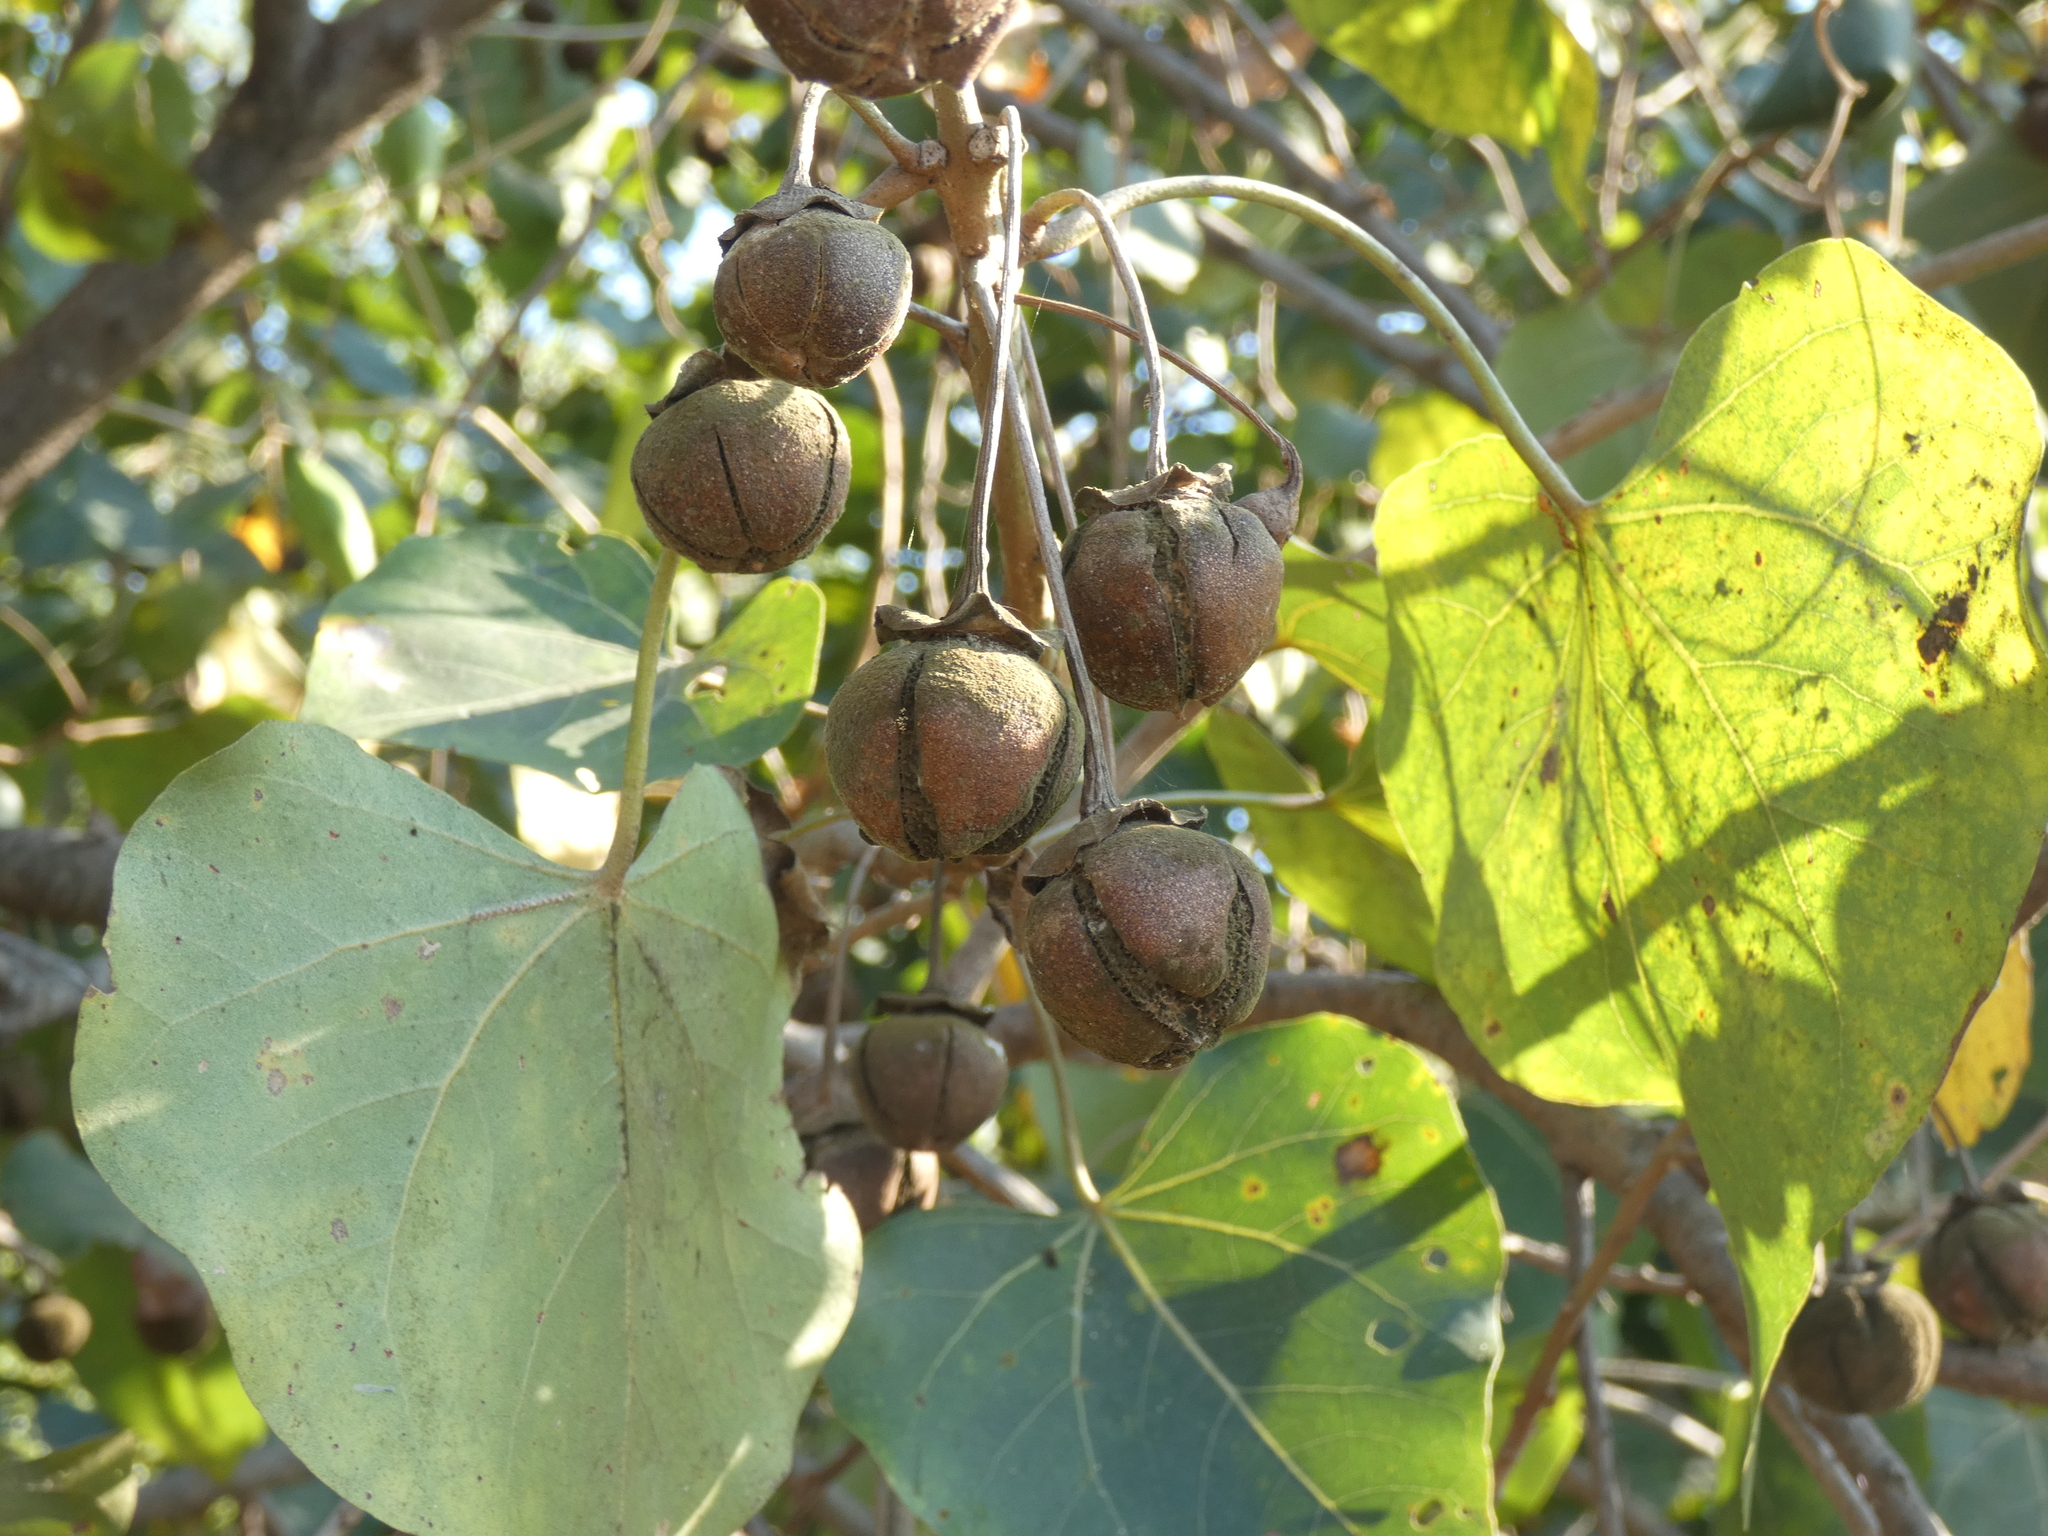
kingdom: Plantae
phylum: Tracheophyta
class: Magnoliopsida
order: Malvales
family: Malvaceae
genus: Thespesia
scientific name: Thespesia populnea
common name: Seaside mahoe
